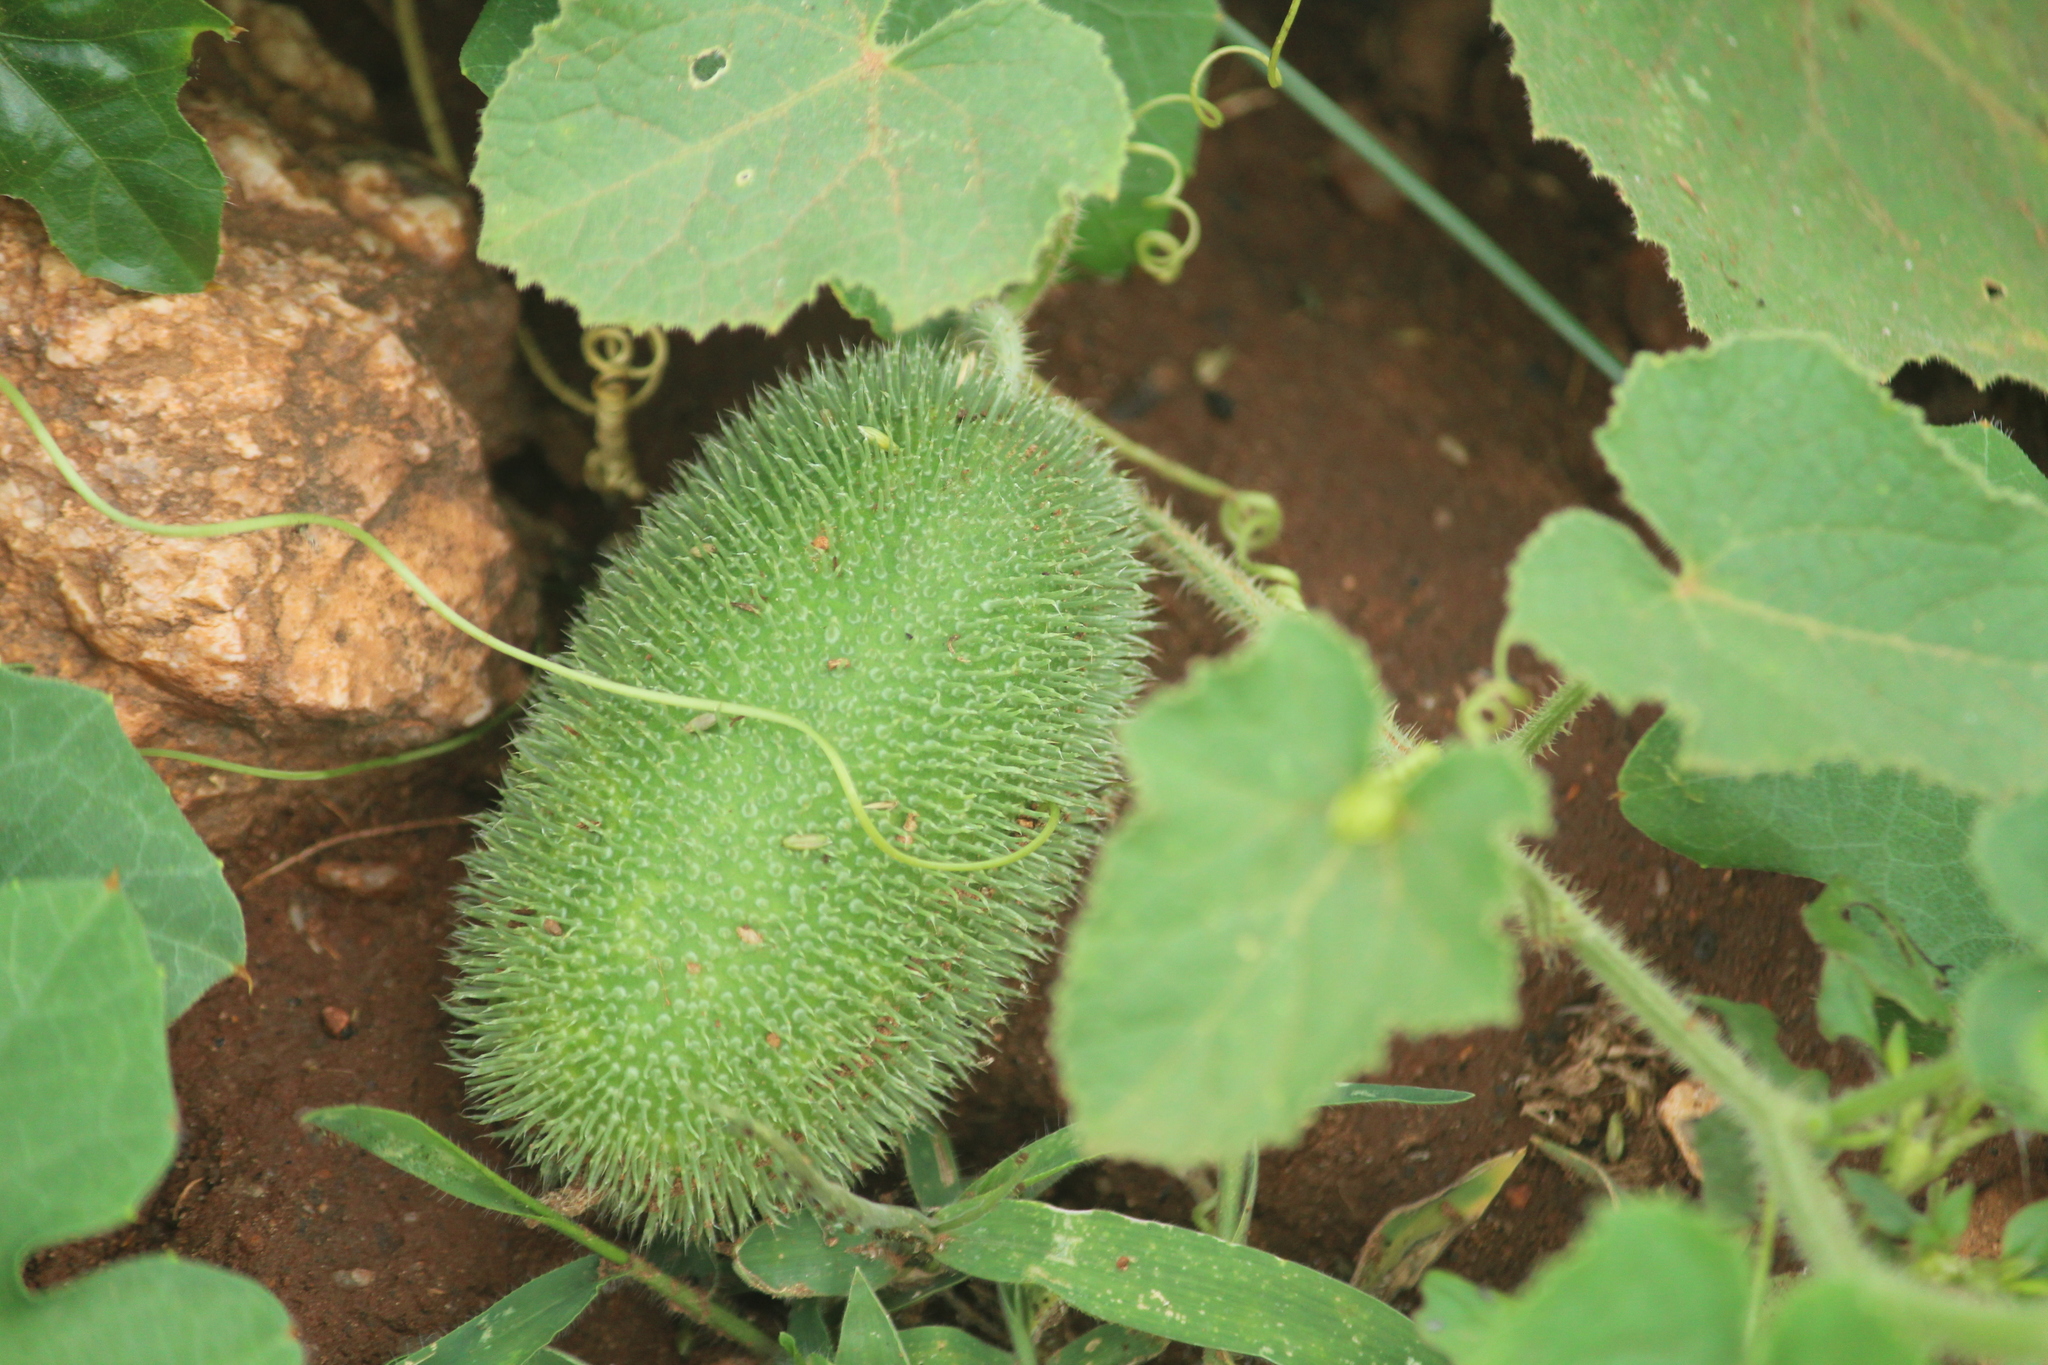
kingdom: Plantae
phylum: Tracheophyta
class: Magnoliopsida
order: Cucurbitales
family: Cucurbitaceae
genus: Cucumis
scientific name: Cucumis dipsaceus
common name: Hedgehog gourd
